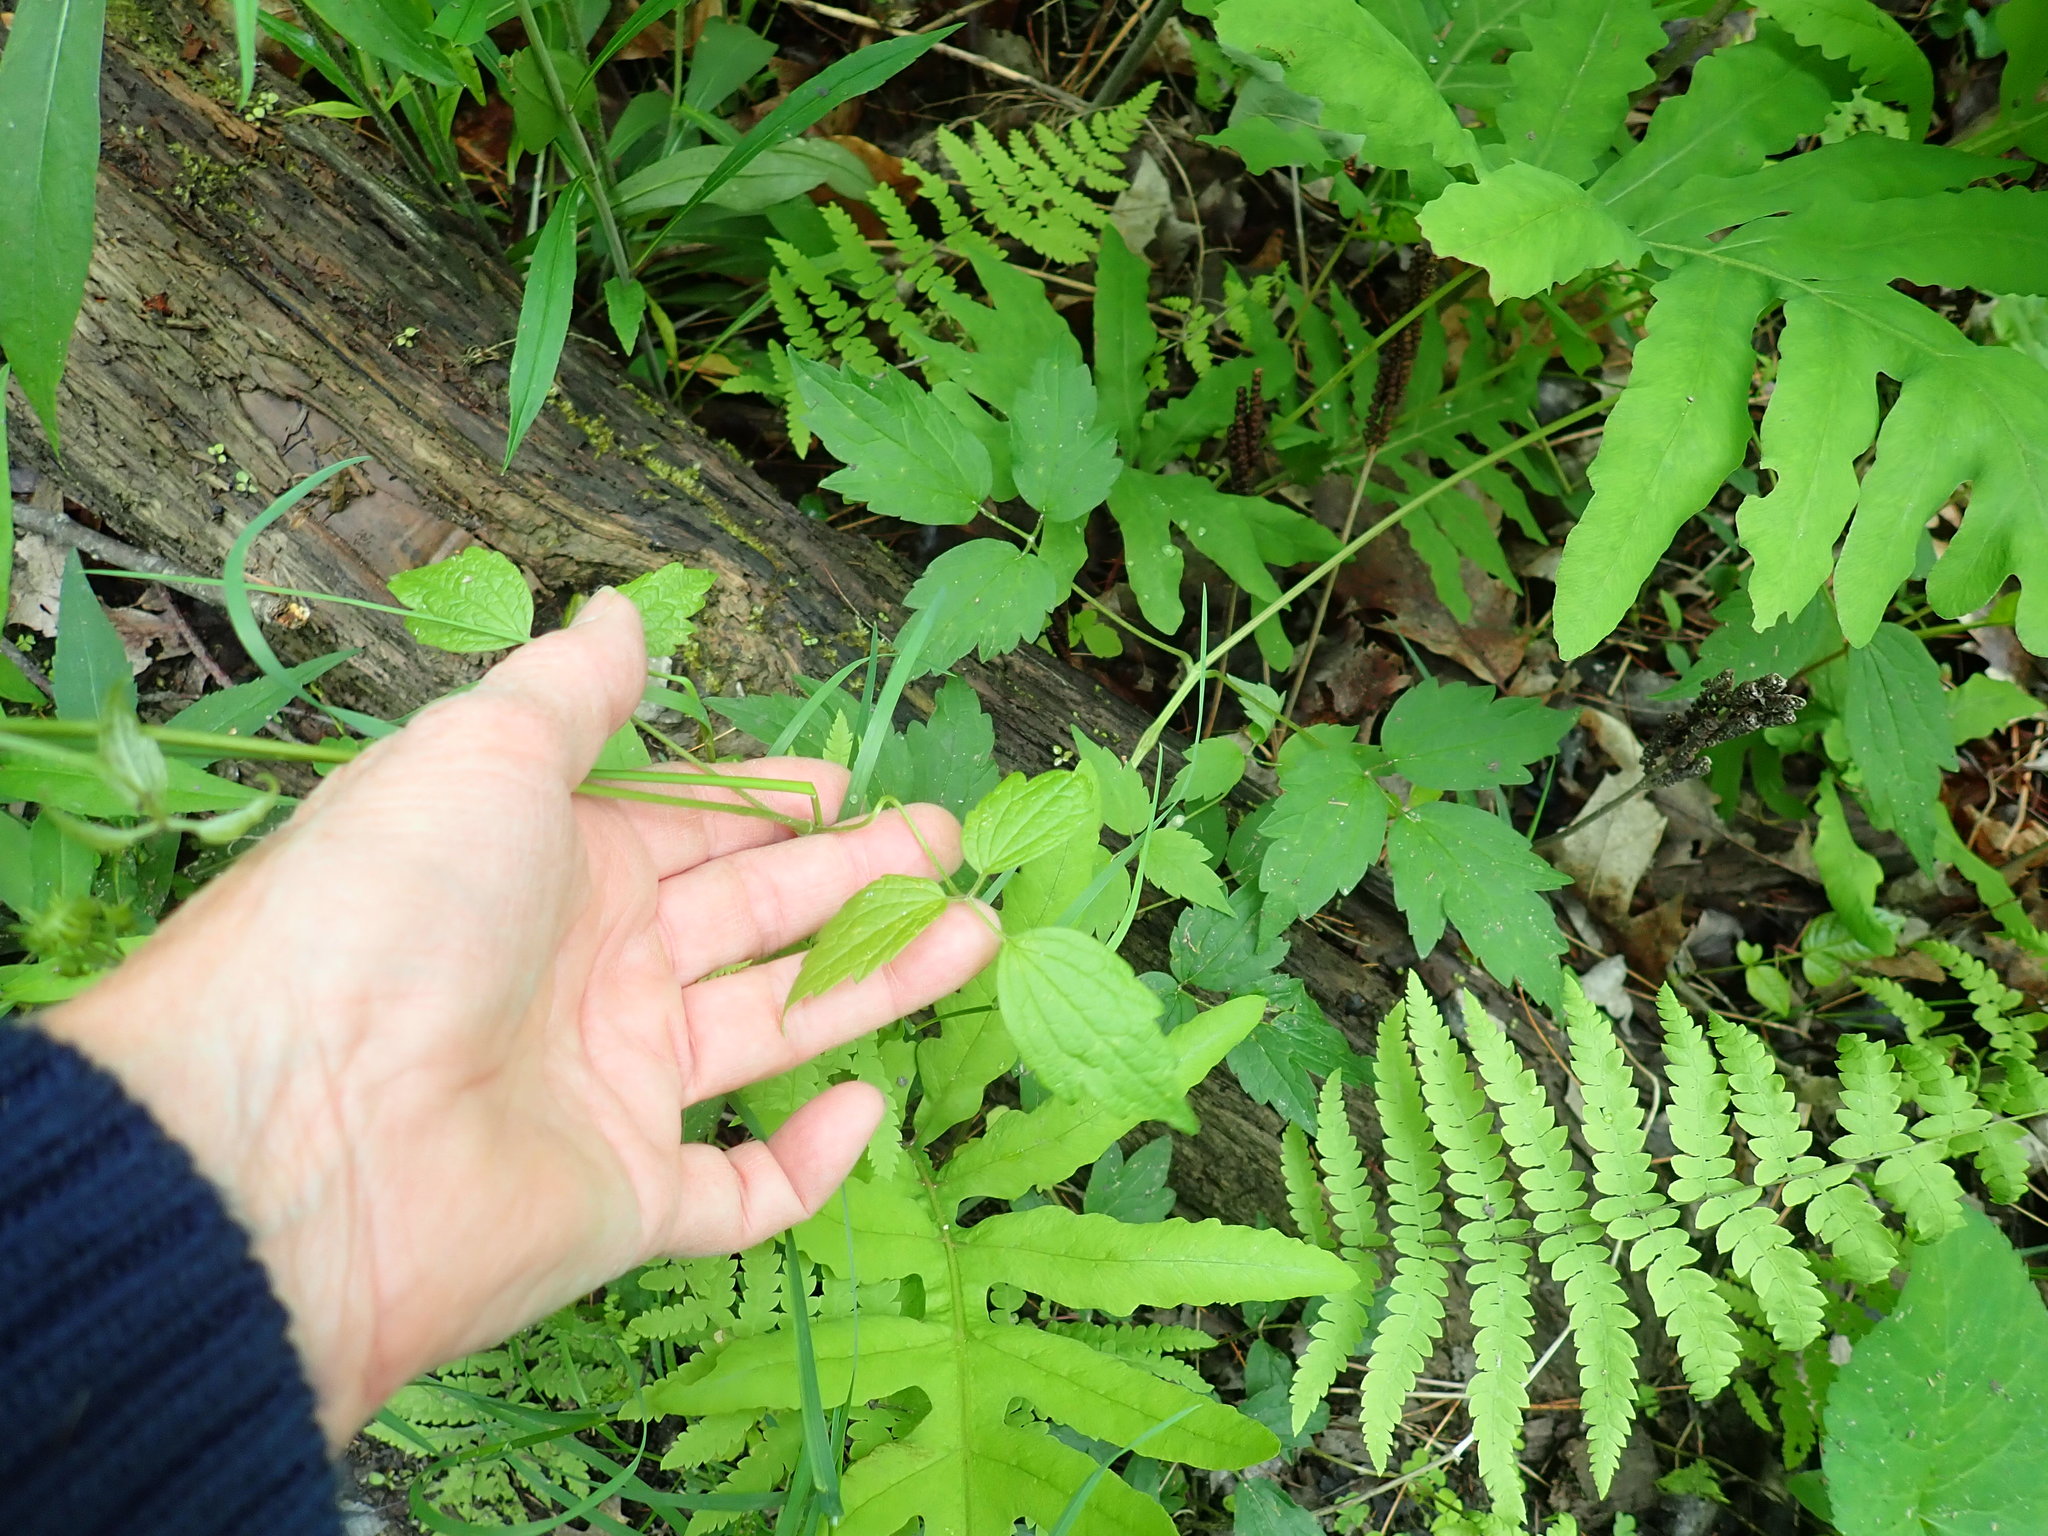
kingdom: Plantae
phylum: Tracheophyta
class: Magnoliopsida
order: Ranunculales
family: Ranunculaceae
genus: Clematis
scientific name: Clematis virginiana
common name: Virgin's-bower
